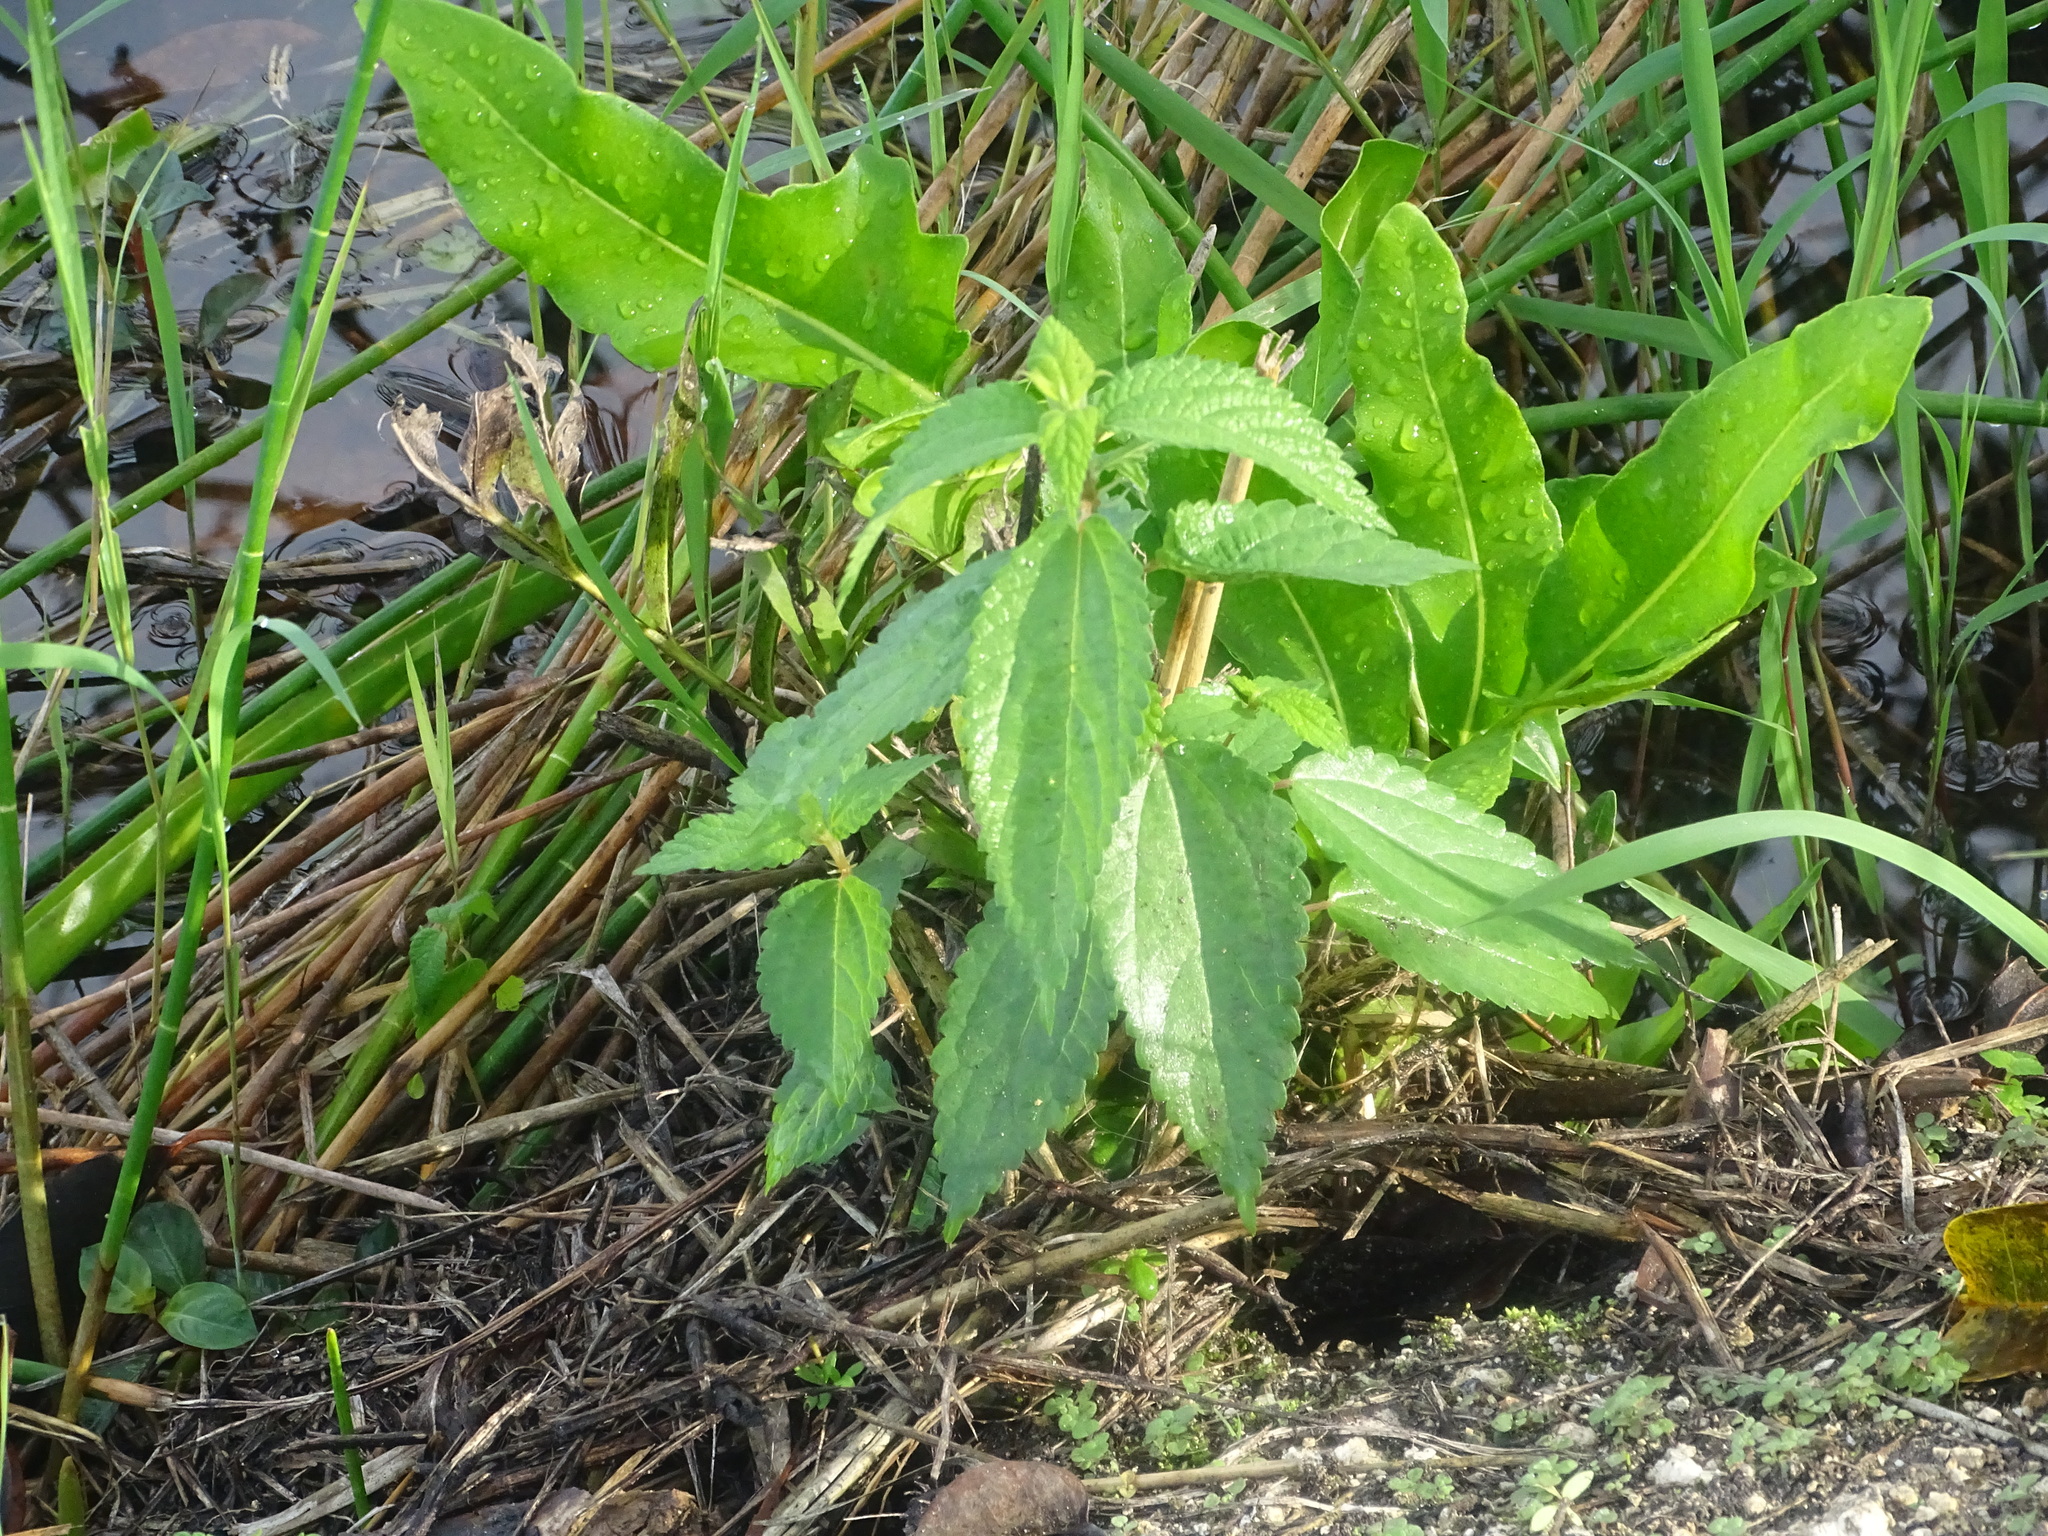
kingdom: Plantae
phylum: Tracheophyta
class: Magnoliopsida
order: Rosales
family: Urticaceae
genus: Boehmeria
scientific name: Boehmeria cylindrica
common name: Bog-hemp
